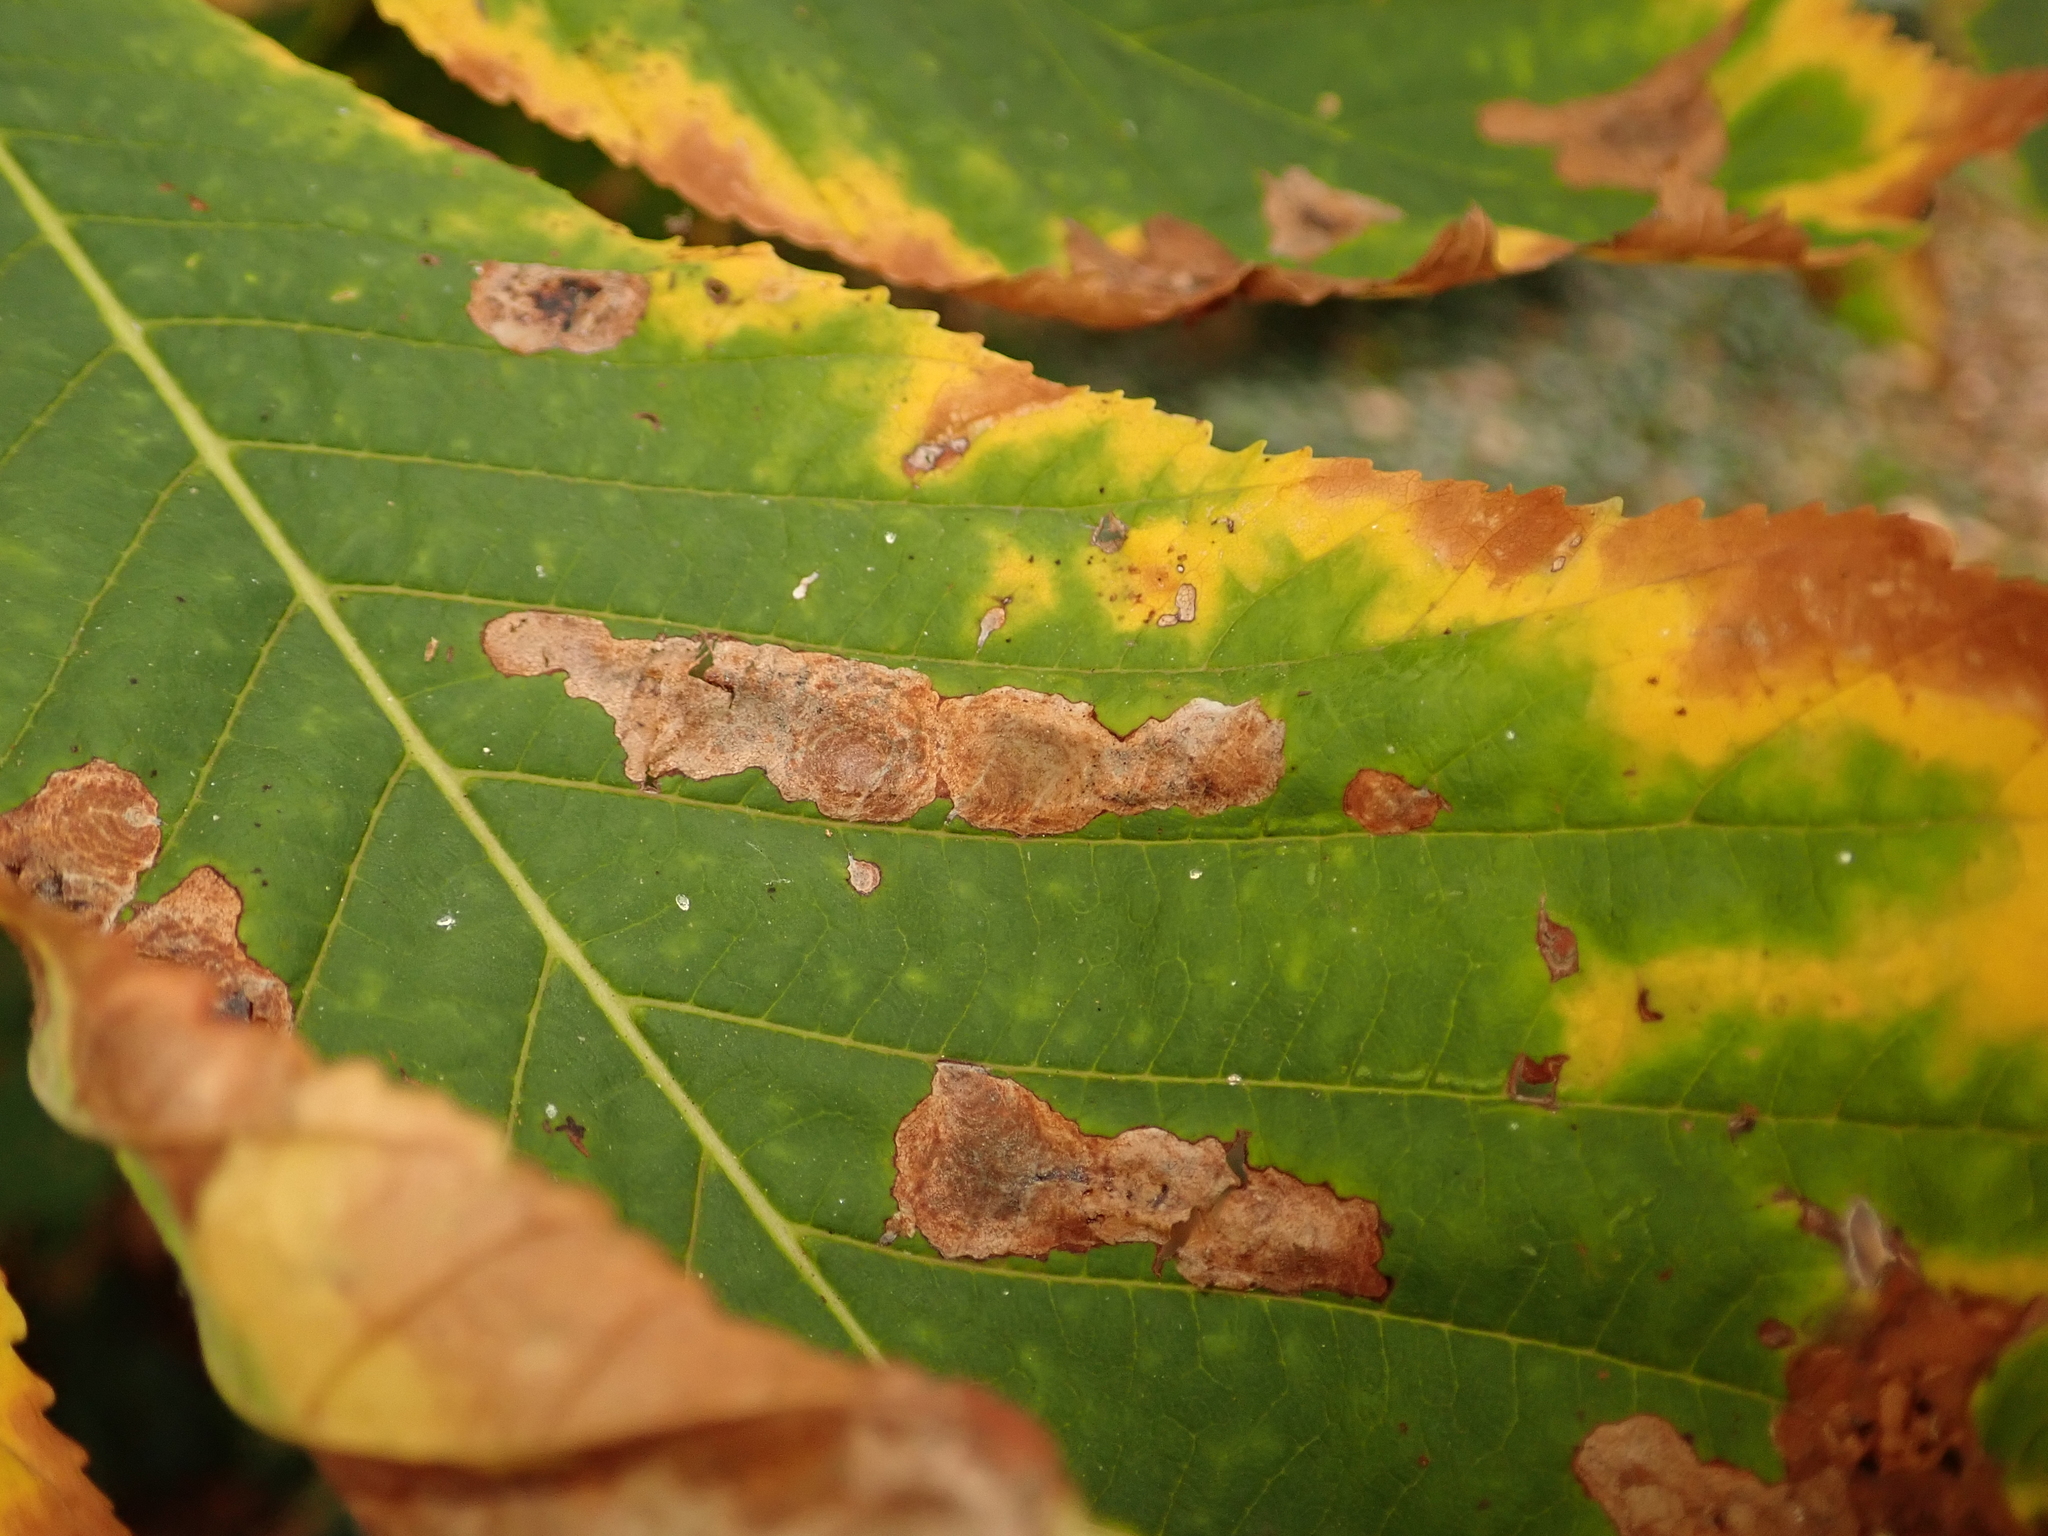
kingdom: Animalia
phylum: Arthropoda
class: Insecta
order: Lepidoptera
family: Gracillariidae
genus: Cameraria
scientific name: Cameraria ohridella
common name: Horse-chestnut leaf-miner
